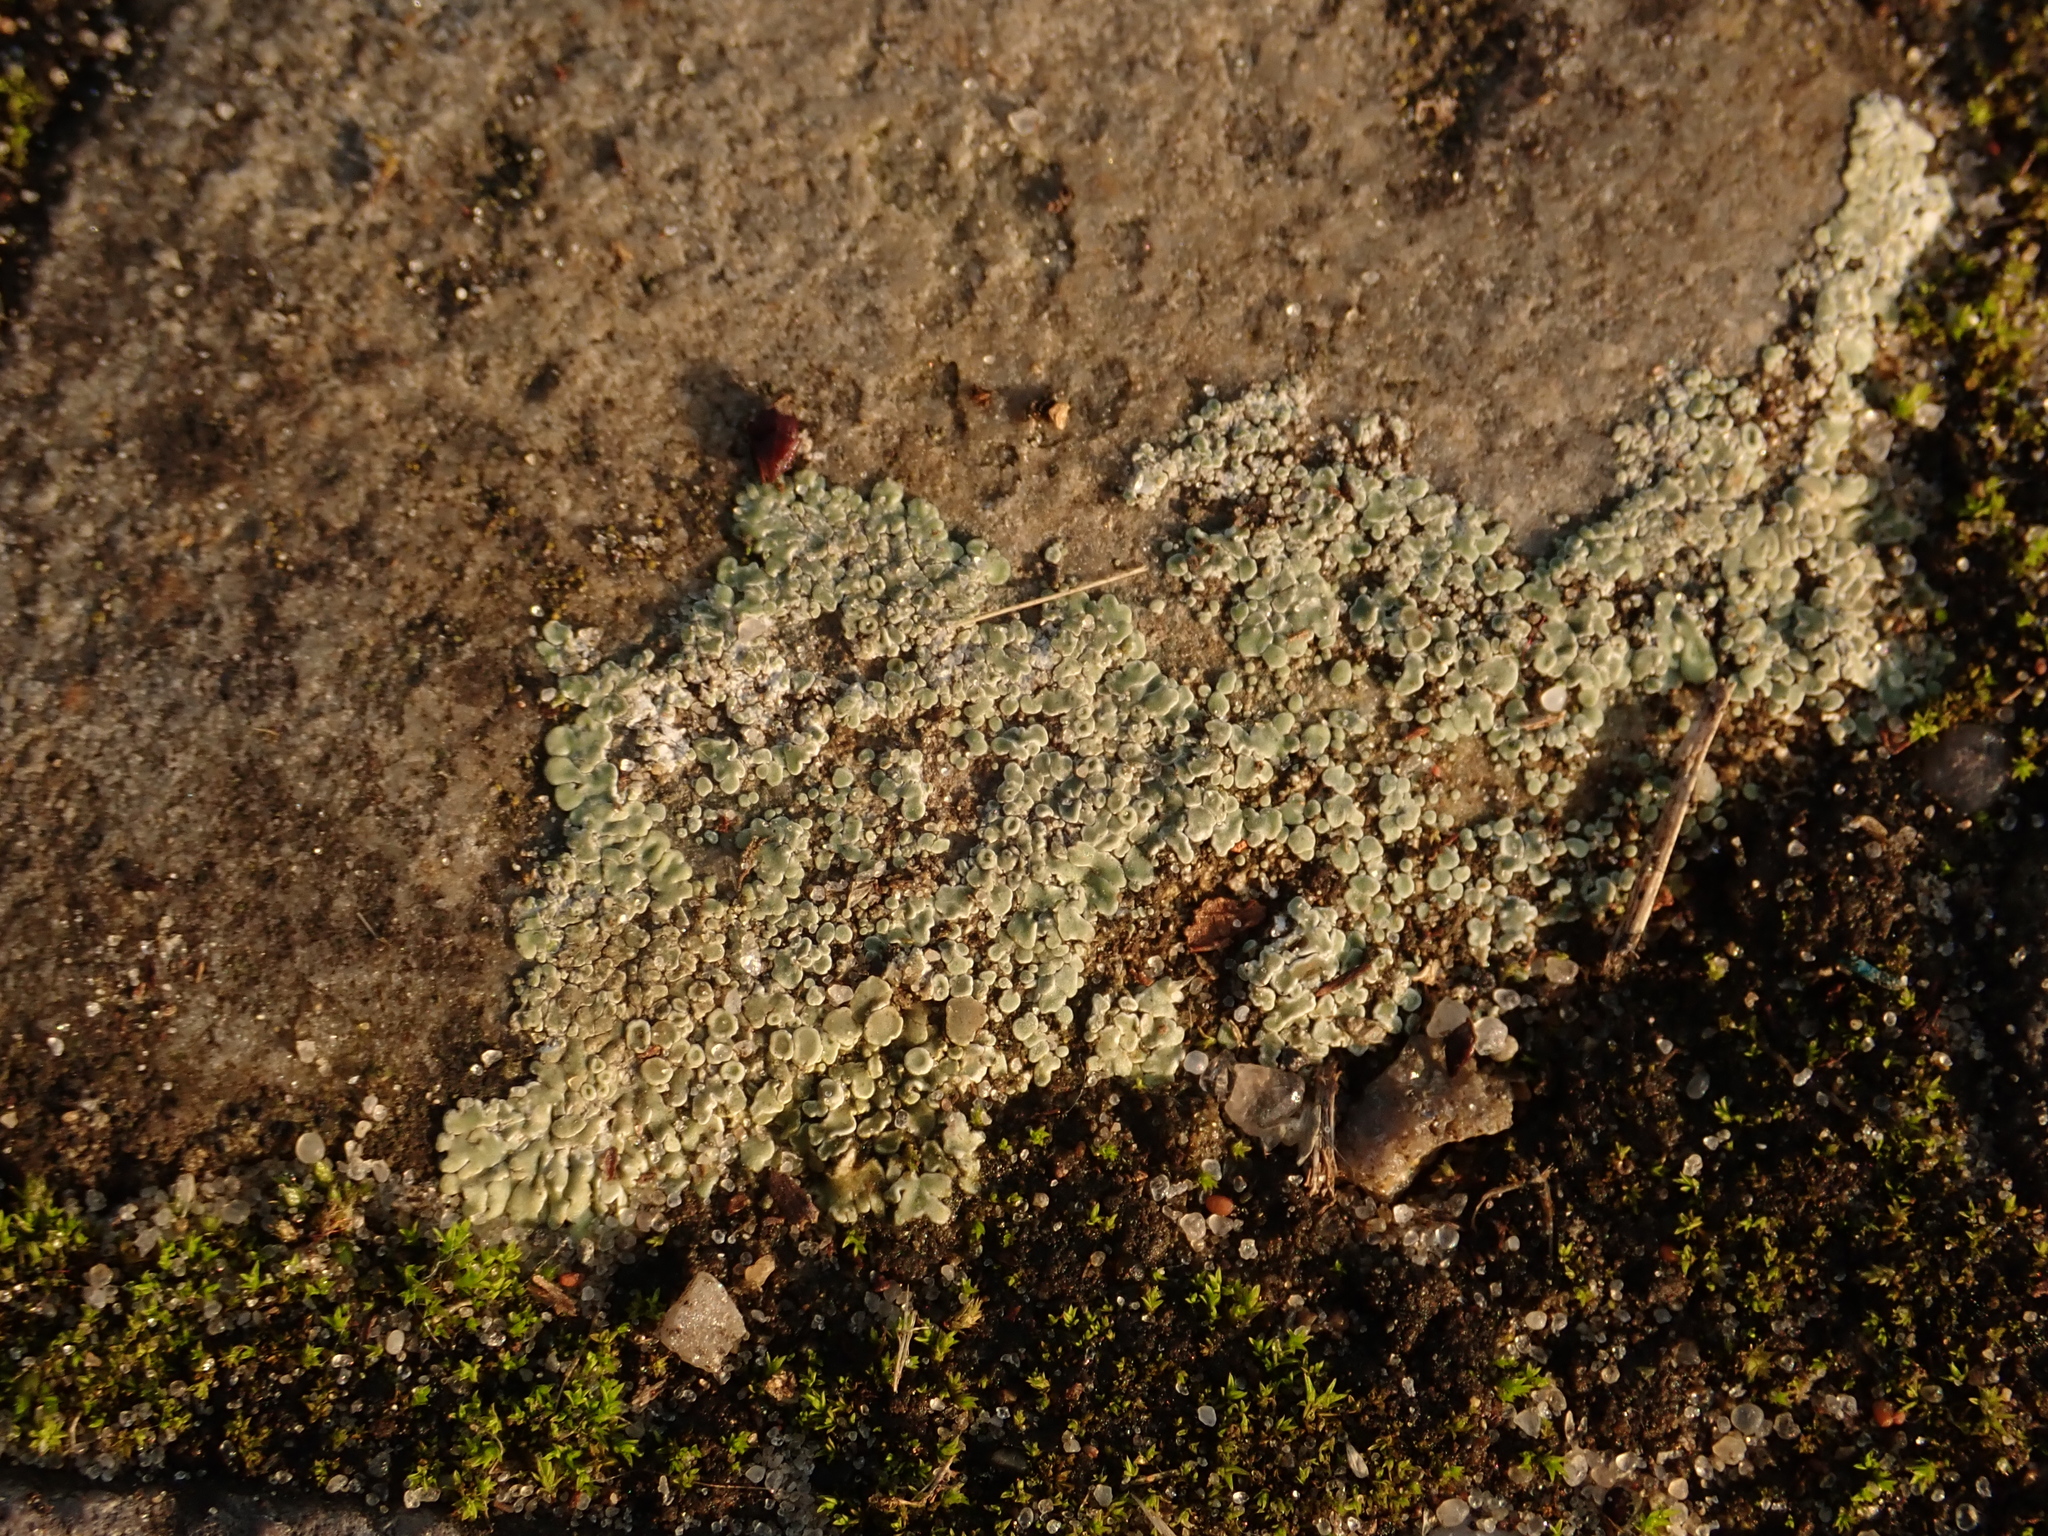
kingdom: Fungi
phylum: Ascomycota
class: Lecanoromycetes
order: Lecanorales
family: Lecanoraceae
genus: Protoparmeliopsis
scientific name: Protoparmeliopsis muralis
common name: Stonewall rim lichen
